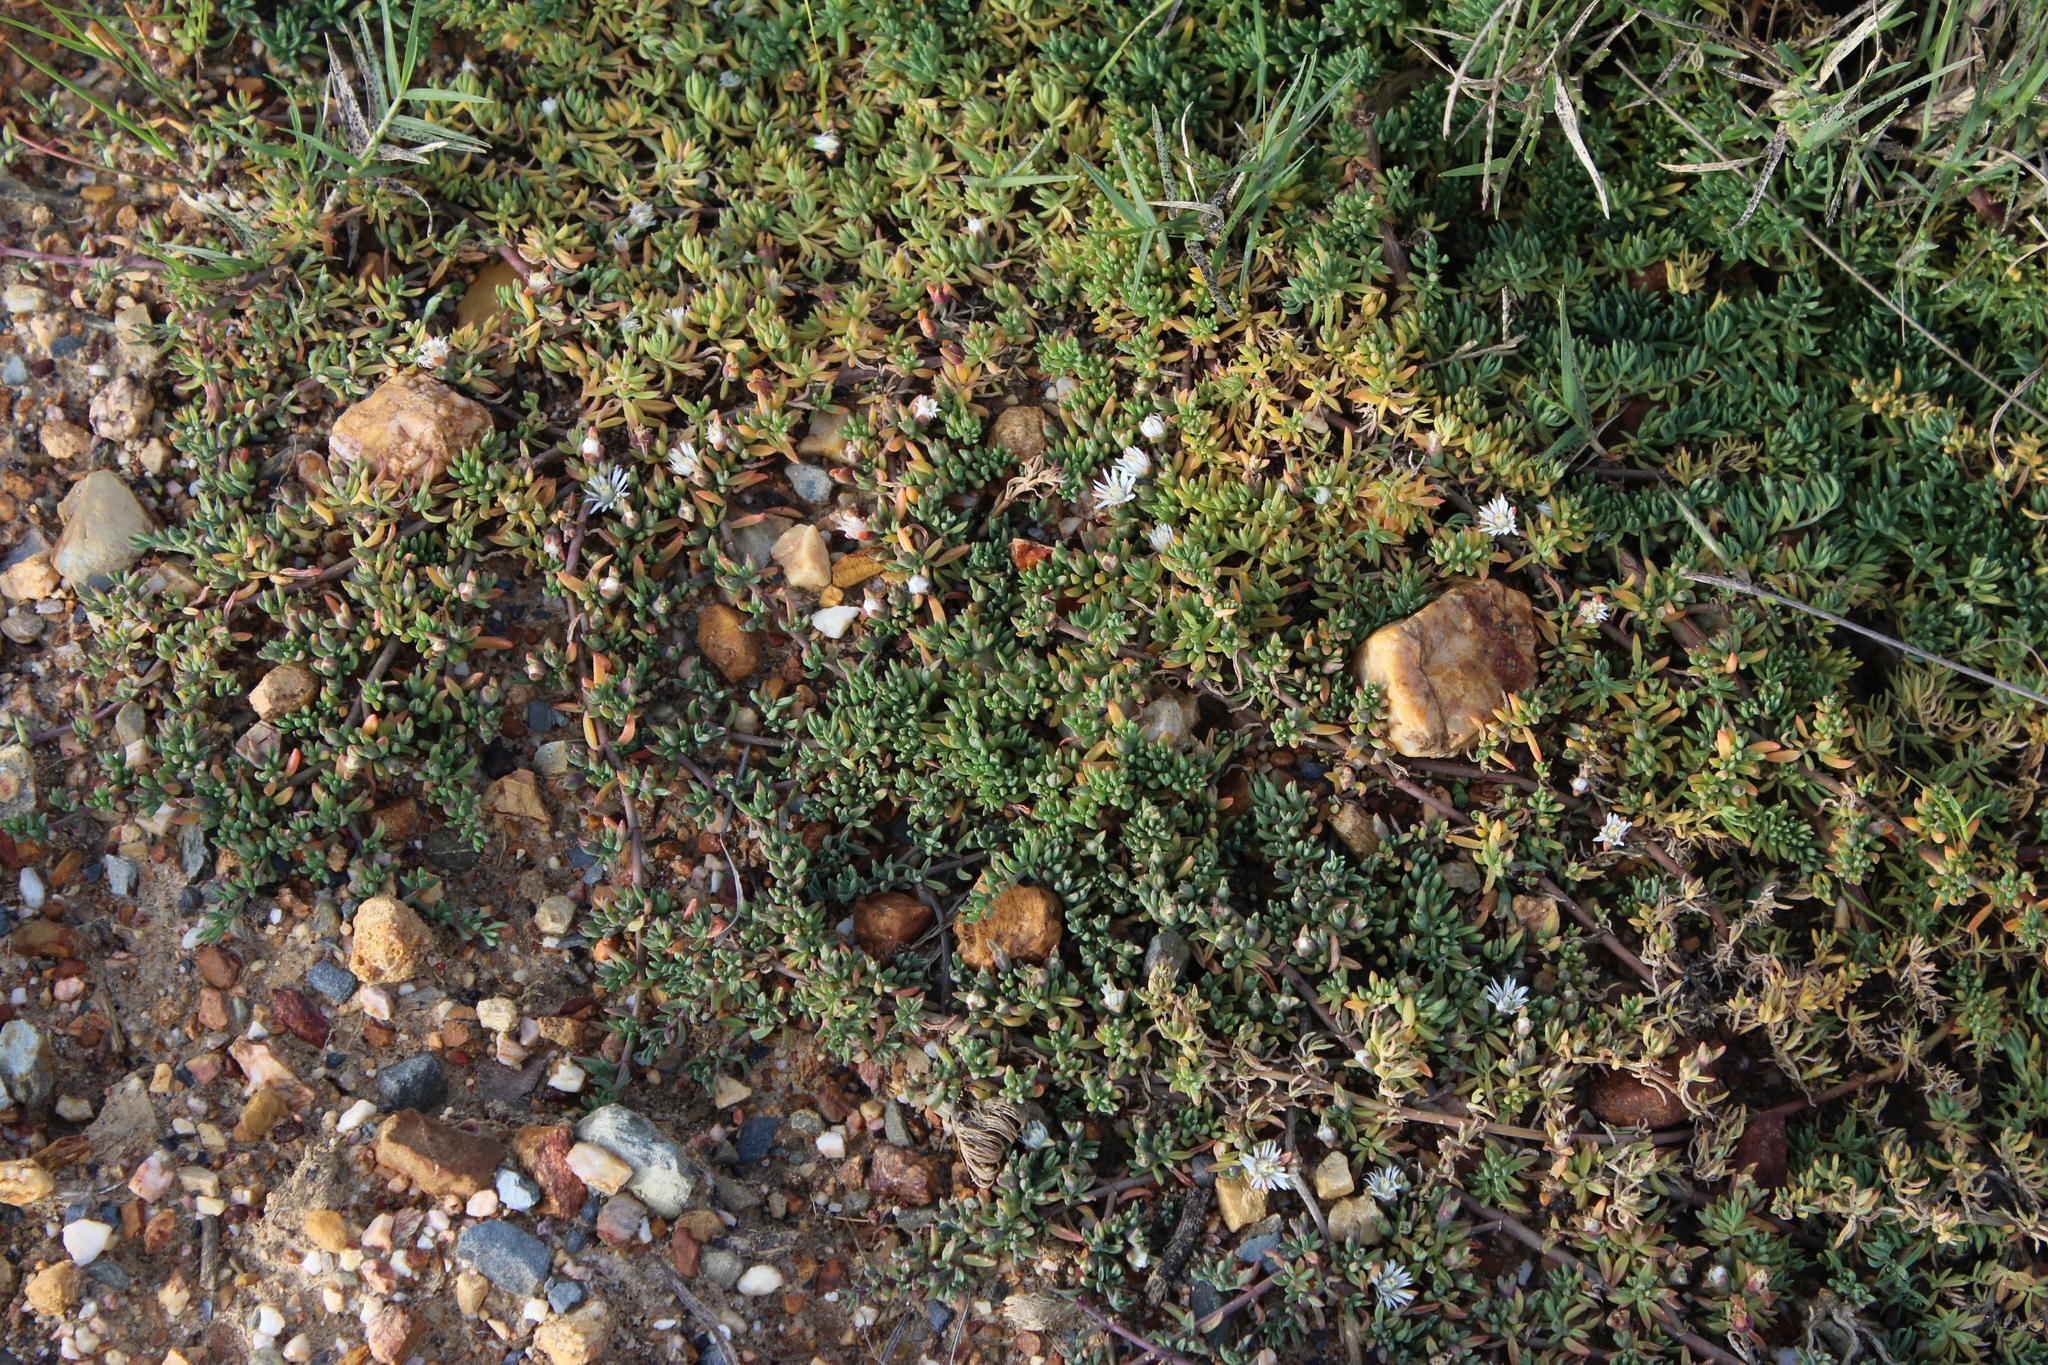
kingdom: Plantae
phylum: Tracheophyta
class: Magnoliopsida
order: Caryophyllales
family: Aizoaceae
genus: Mesembryanthemum
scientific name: Mesembryanthemum parviflorum
